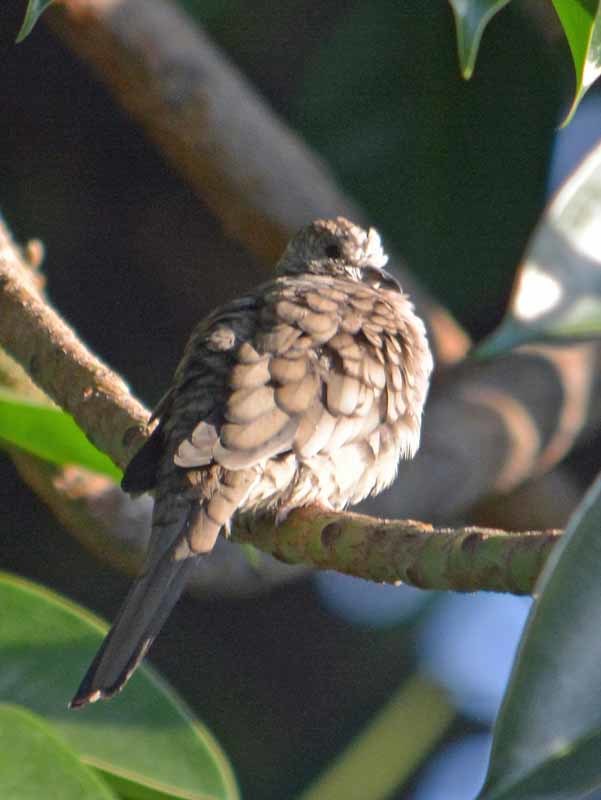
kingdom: Animalia
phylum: Chordata
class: Aves
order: Columbiformes
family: Columbidae
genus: Columbina
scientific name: Columbina inca
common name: Inca dove
